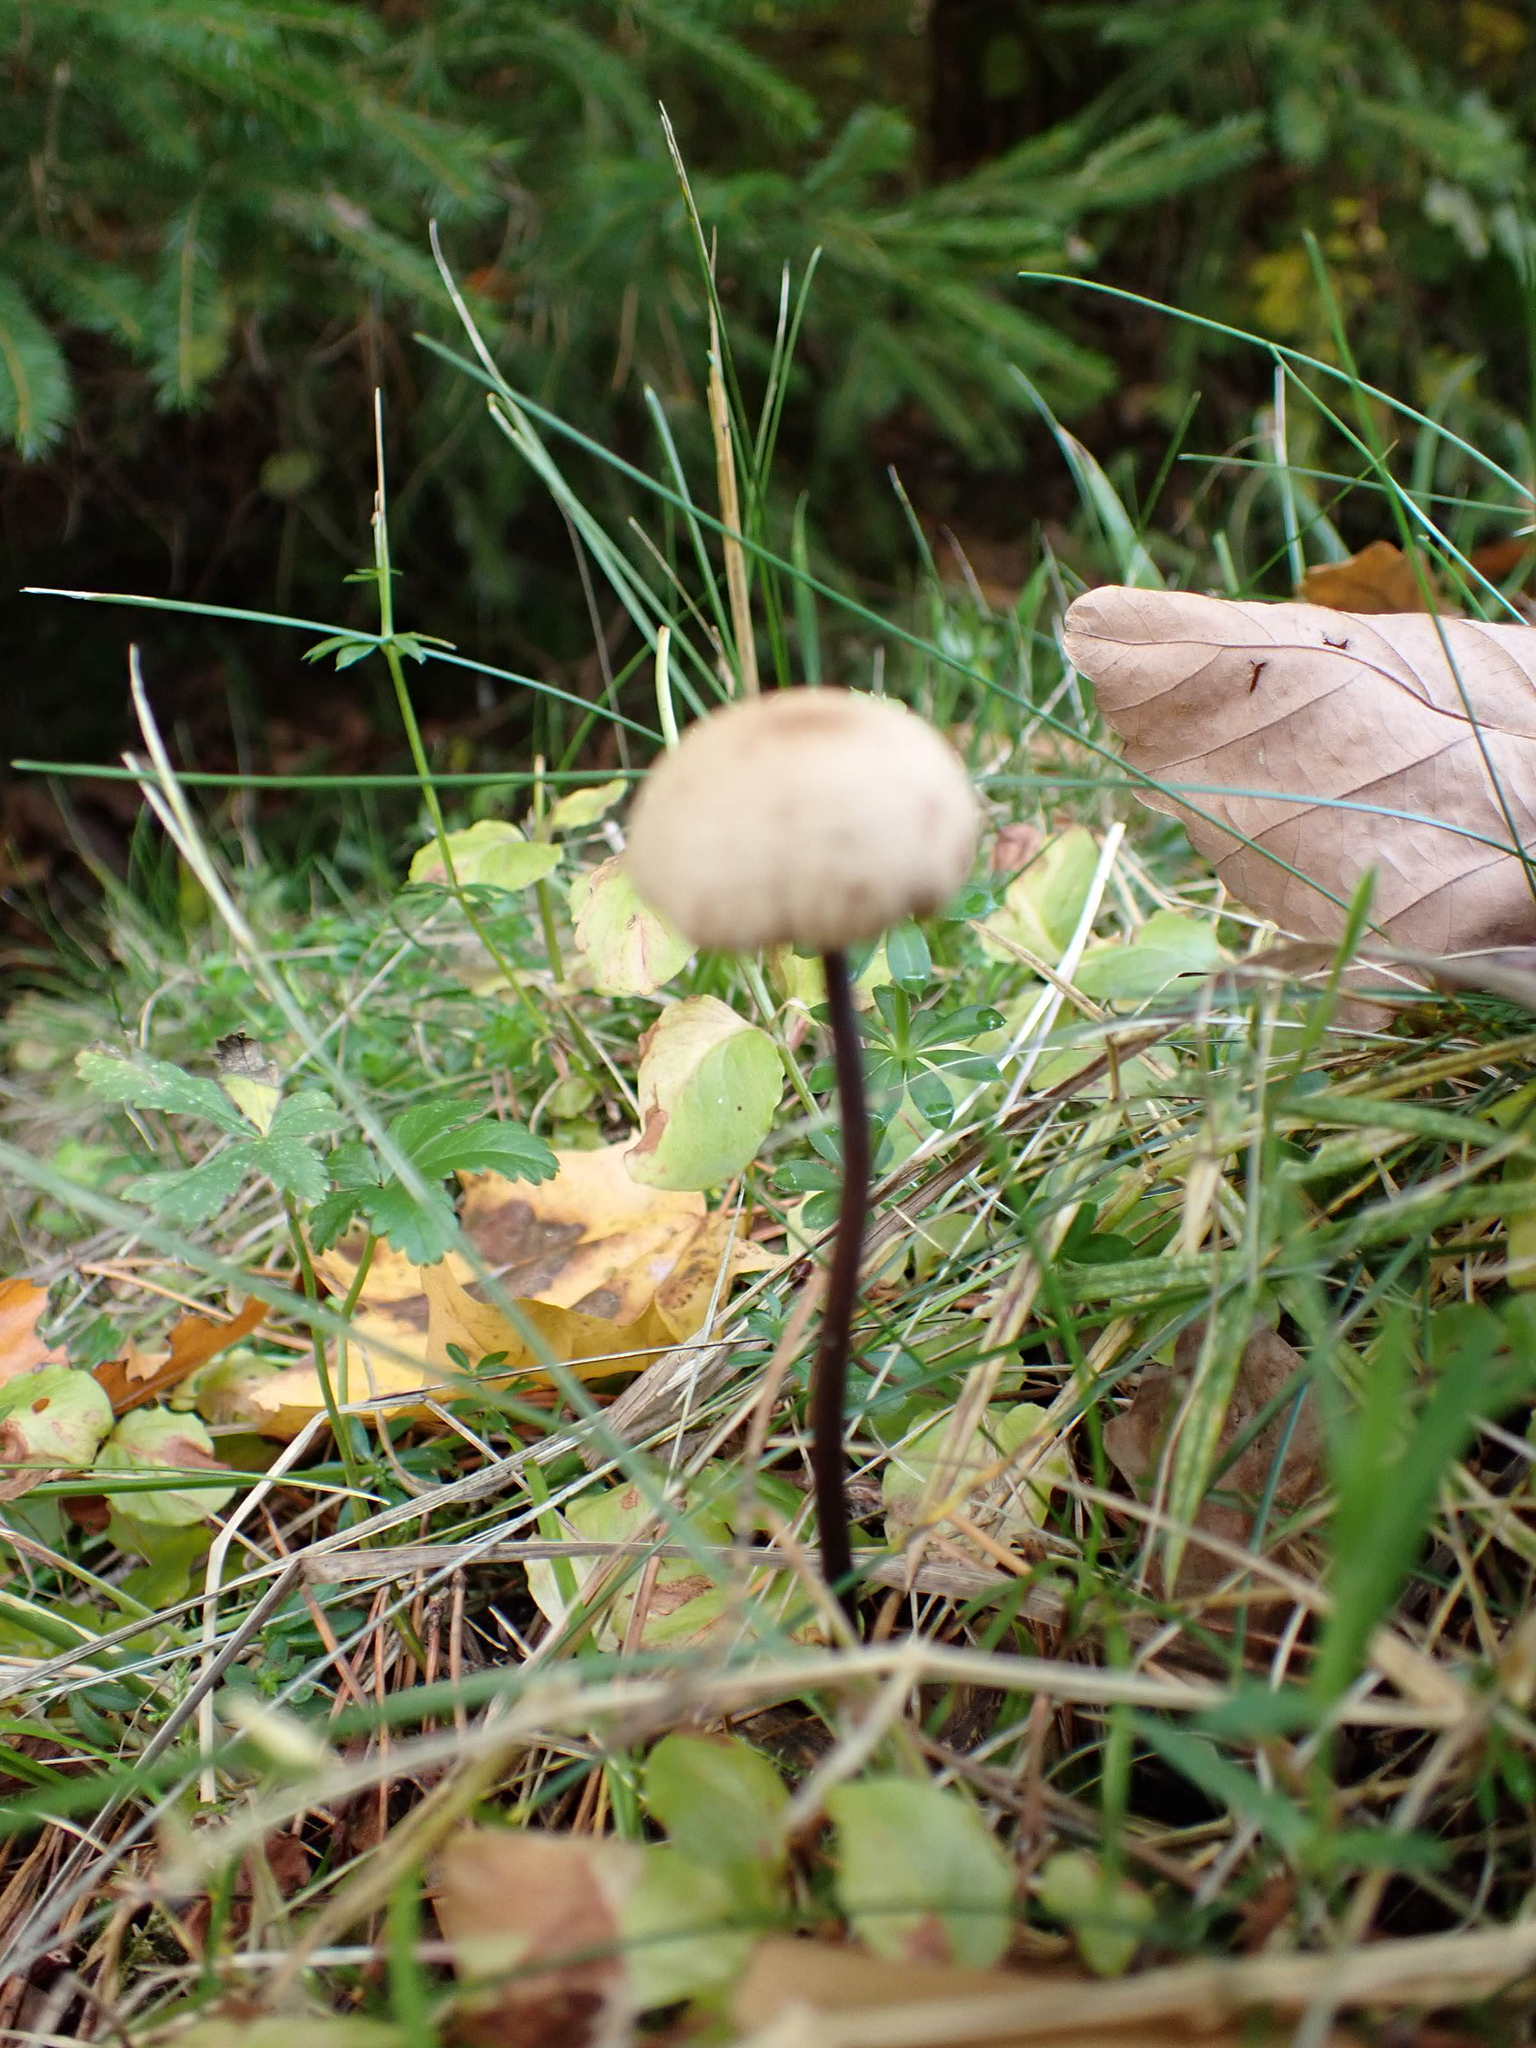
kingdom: Fungi
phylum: Basidiomycota
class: Agaricomycetes
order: Agaricales
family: Omphalotaceae
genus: Mycetinis
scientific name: Mycetinis alliaceus
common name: Garlic parachute
